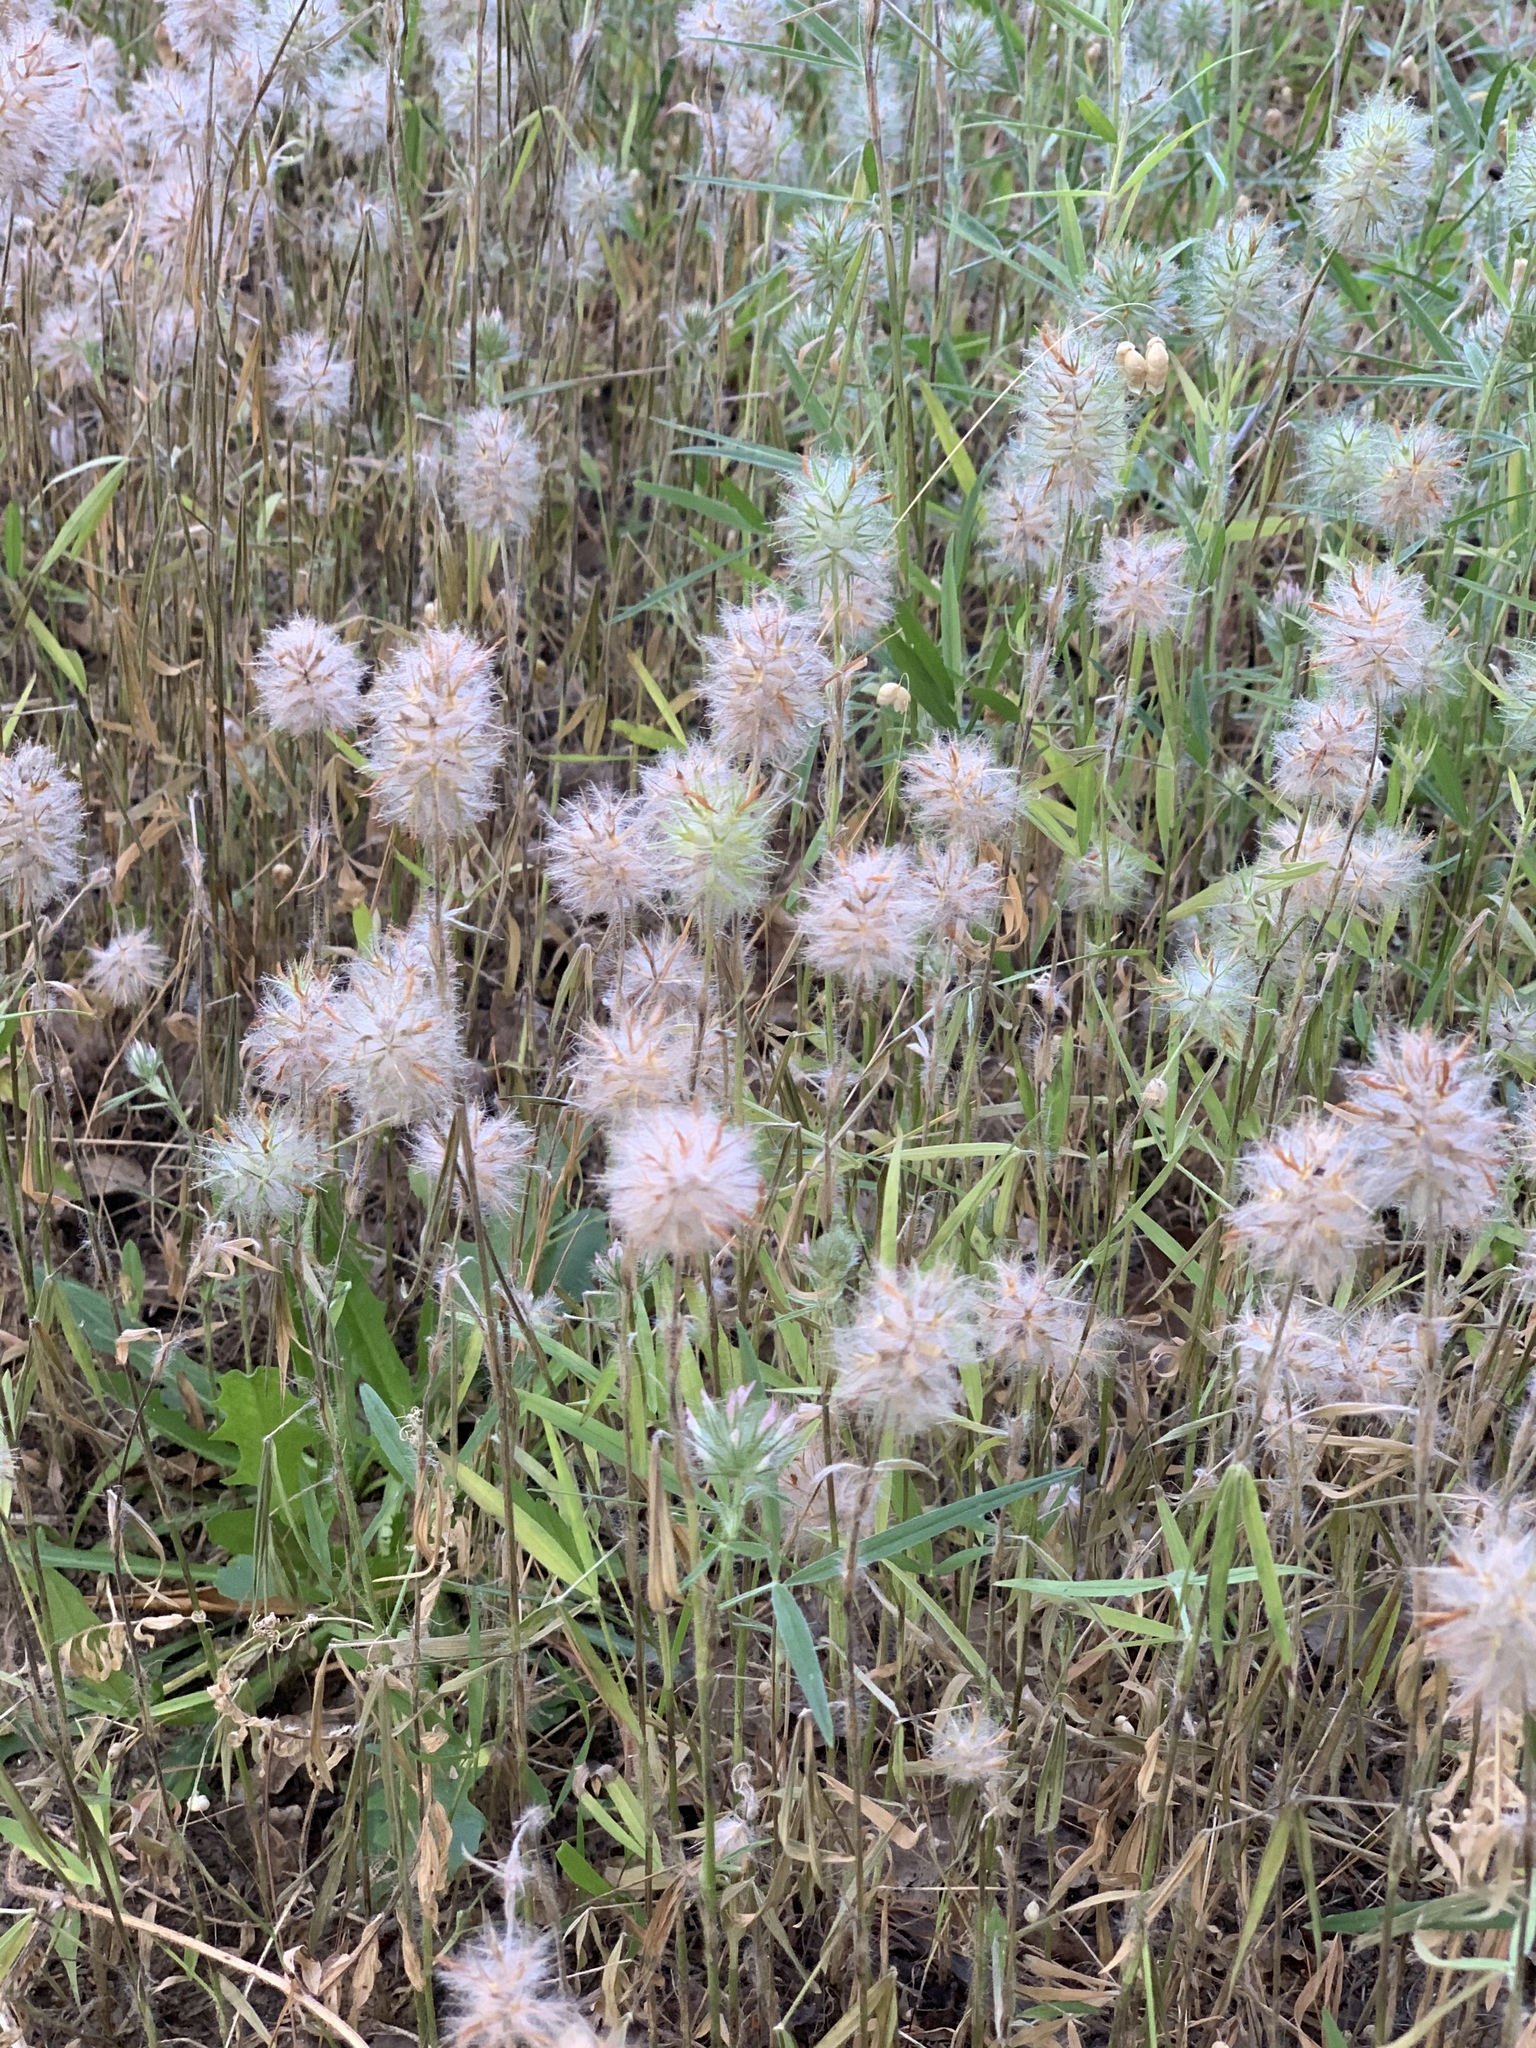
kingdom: Plantae
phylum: Tracheophyta
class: Magnoliopsida
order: Fabales
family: Fabaceae
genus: Trifolium
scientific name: Trifolium angustifolium
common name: Narrow clover
